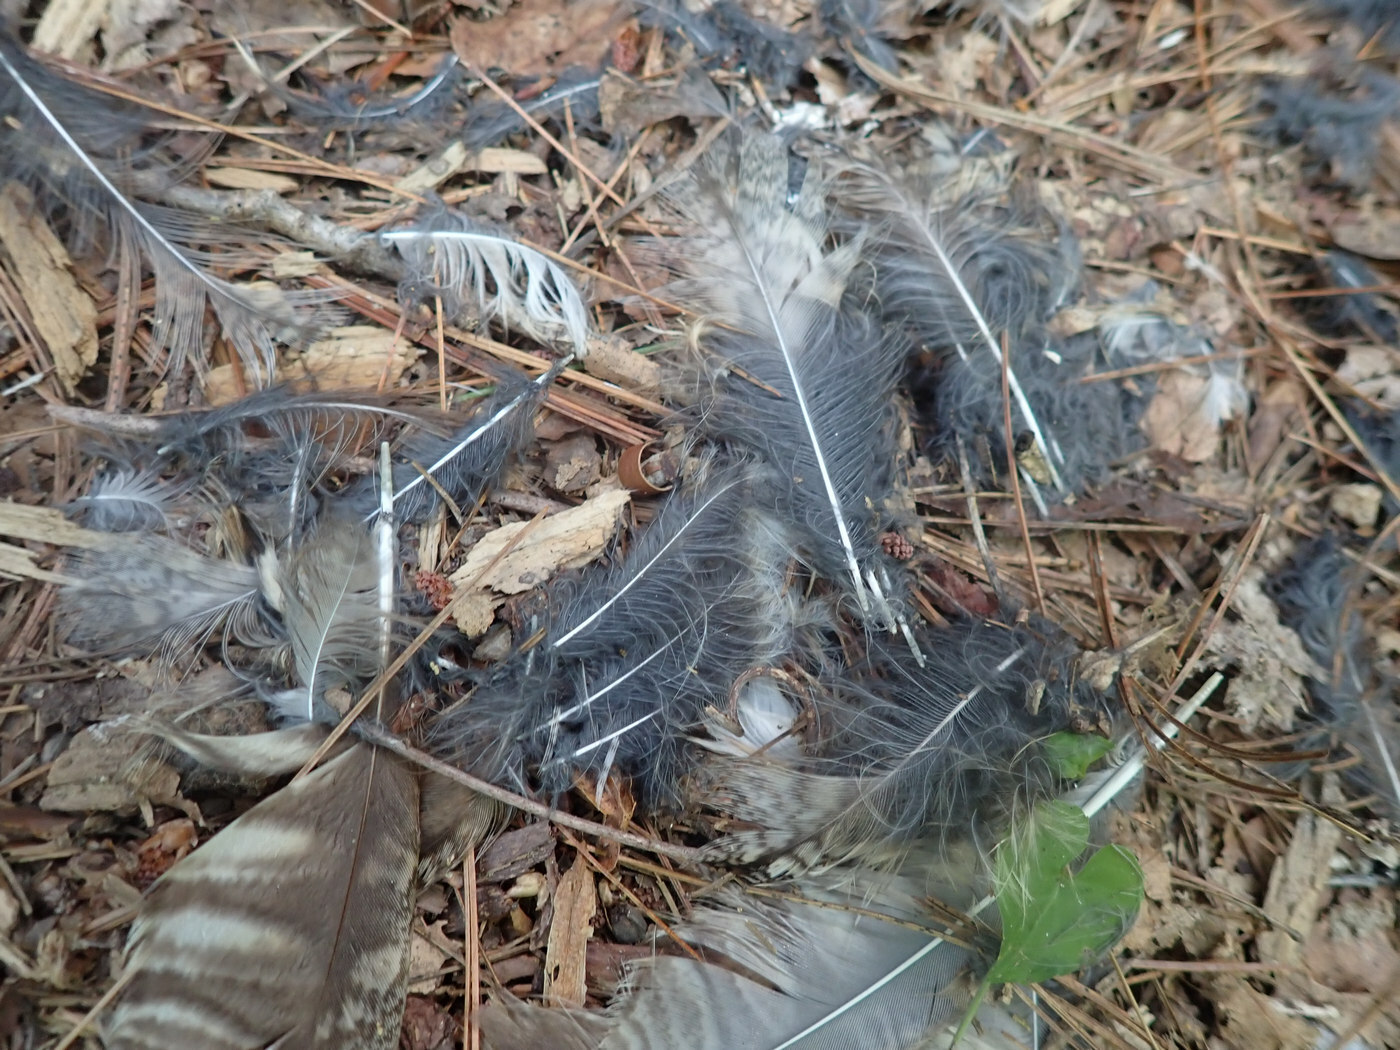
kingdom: Animalia
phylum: Chordata
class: Aves
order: Strigiformes
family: Strigidae
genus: Megascops
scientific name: Megascops asio
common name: Eastern screech-owl
